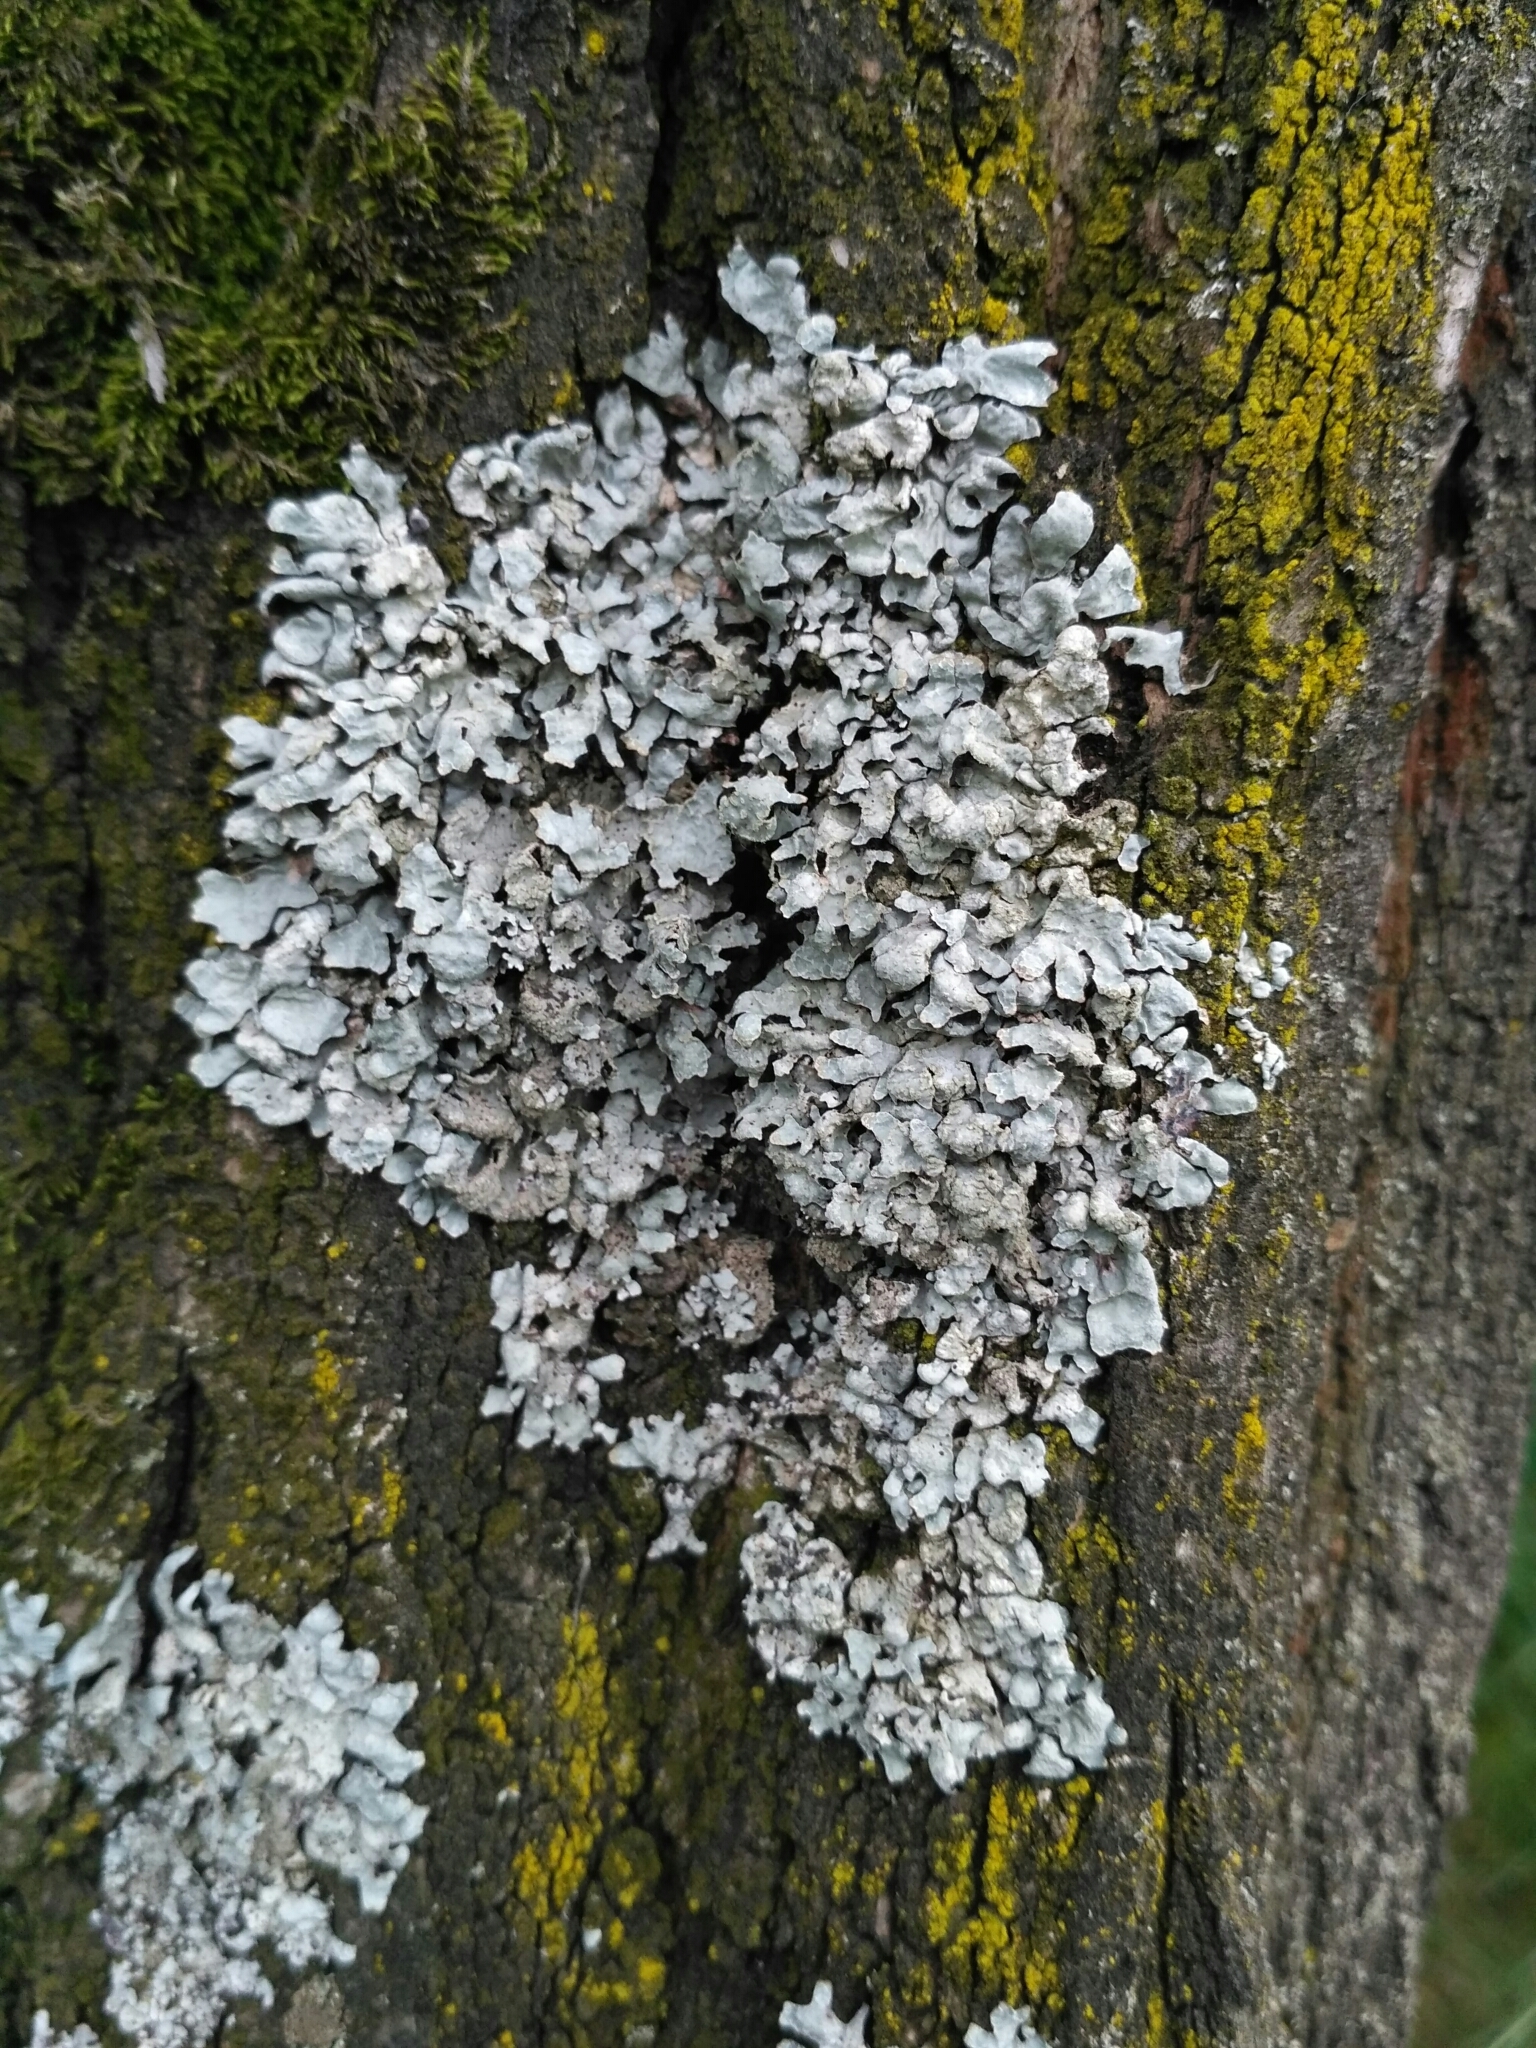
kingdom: Fungi
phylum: Ascomycota
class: Lecanoromycetes
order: Lecanorales
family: Parmeliaceae
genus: Parmelia
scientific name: Parmelia sulcata
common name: Netted shield lichen
